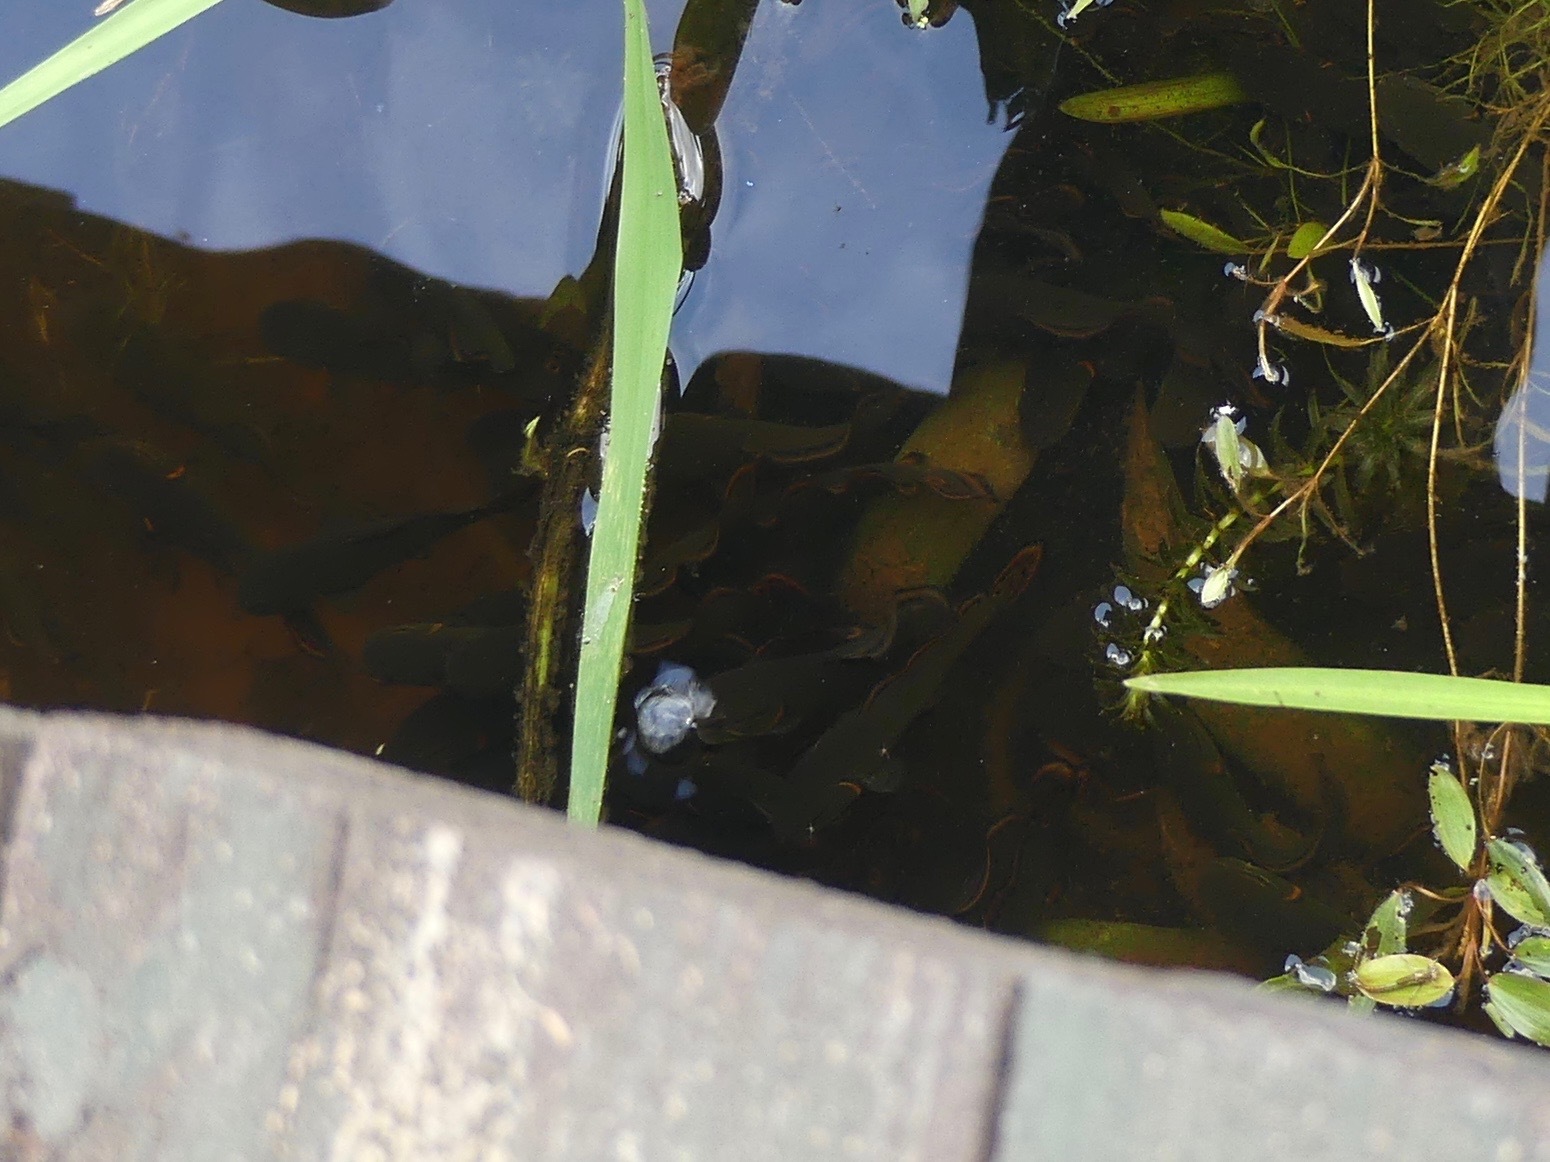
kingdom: Animalia
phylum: Chordata
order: Amiiformes
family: Amiidae
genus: Amia
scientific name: Amia calva
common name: Bowfin
